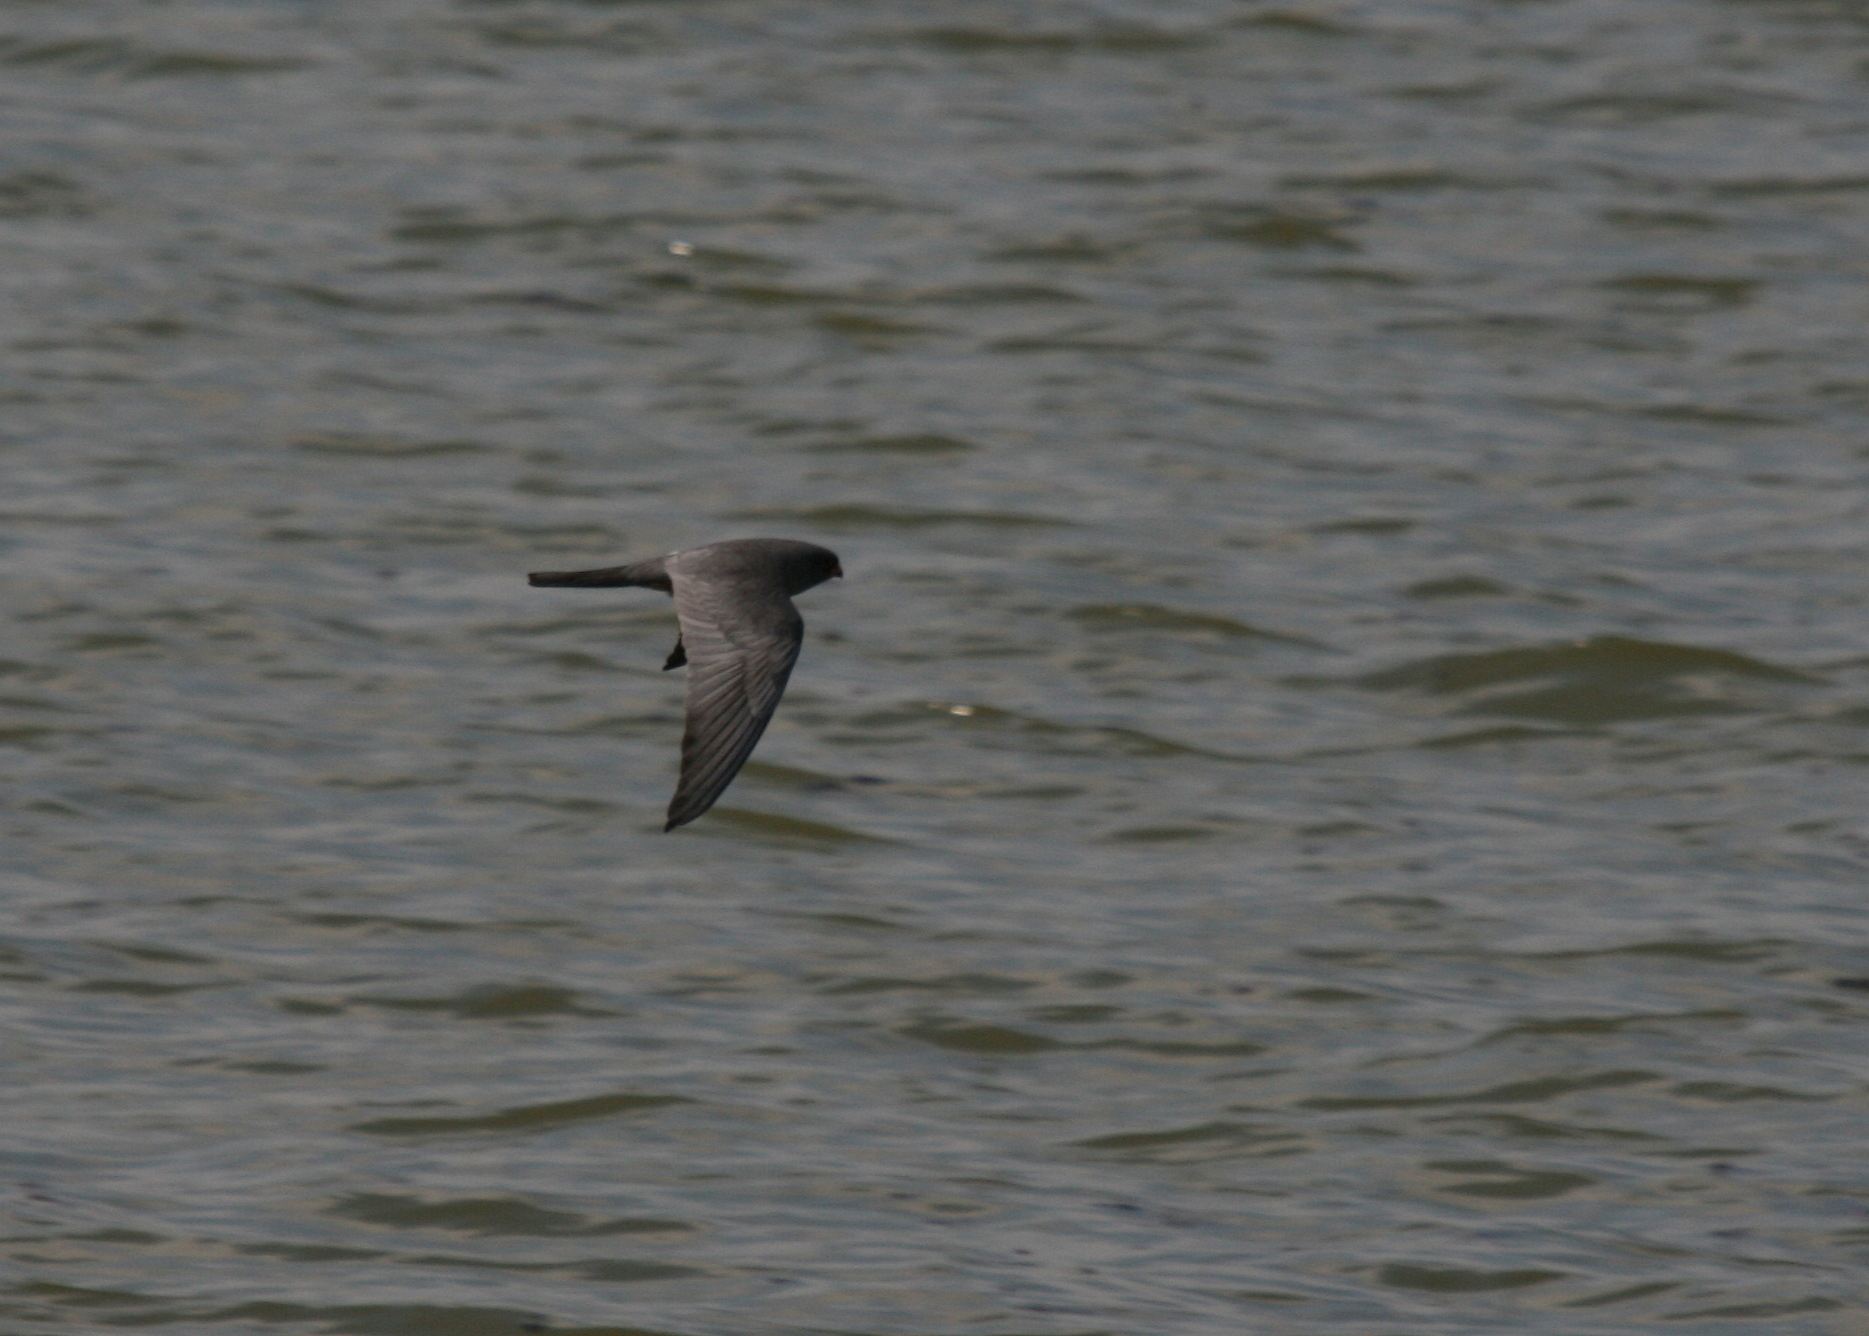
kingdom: Animalia
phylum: Chordata
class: Aves
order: Falconiformes
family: Falconidae
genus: Falco
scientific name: Falco vespertinus
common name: Red-footed falcon
